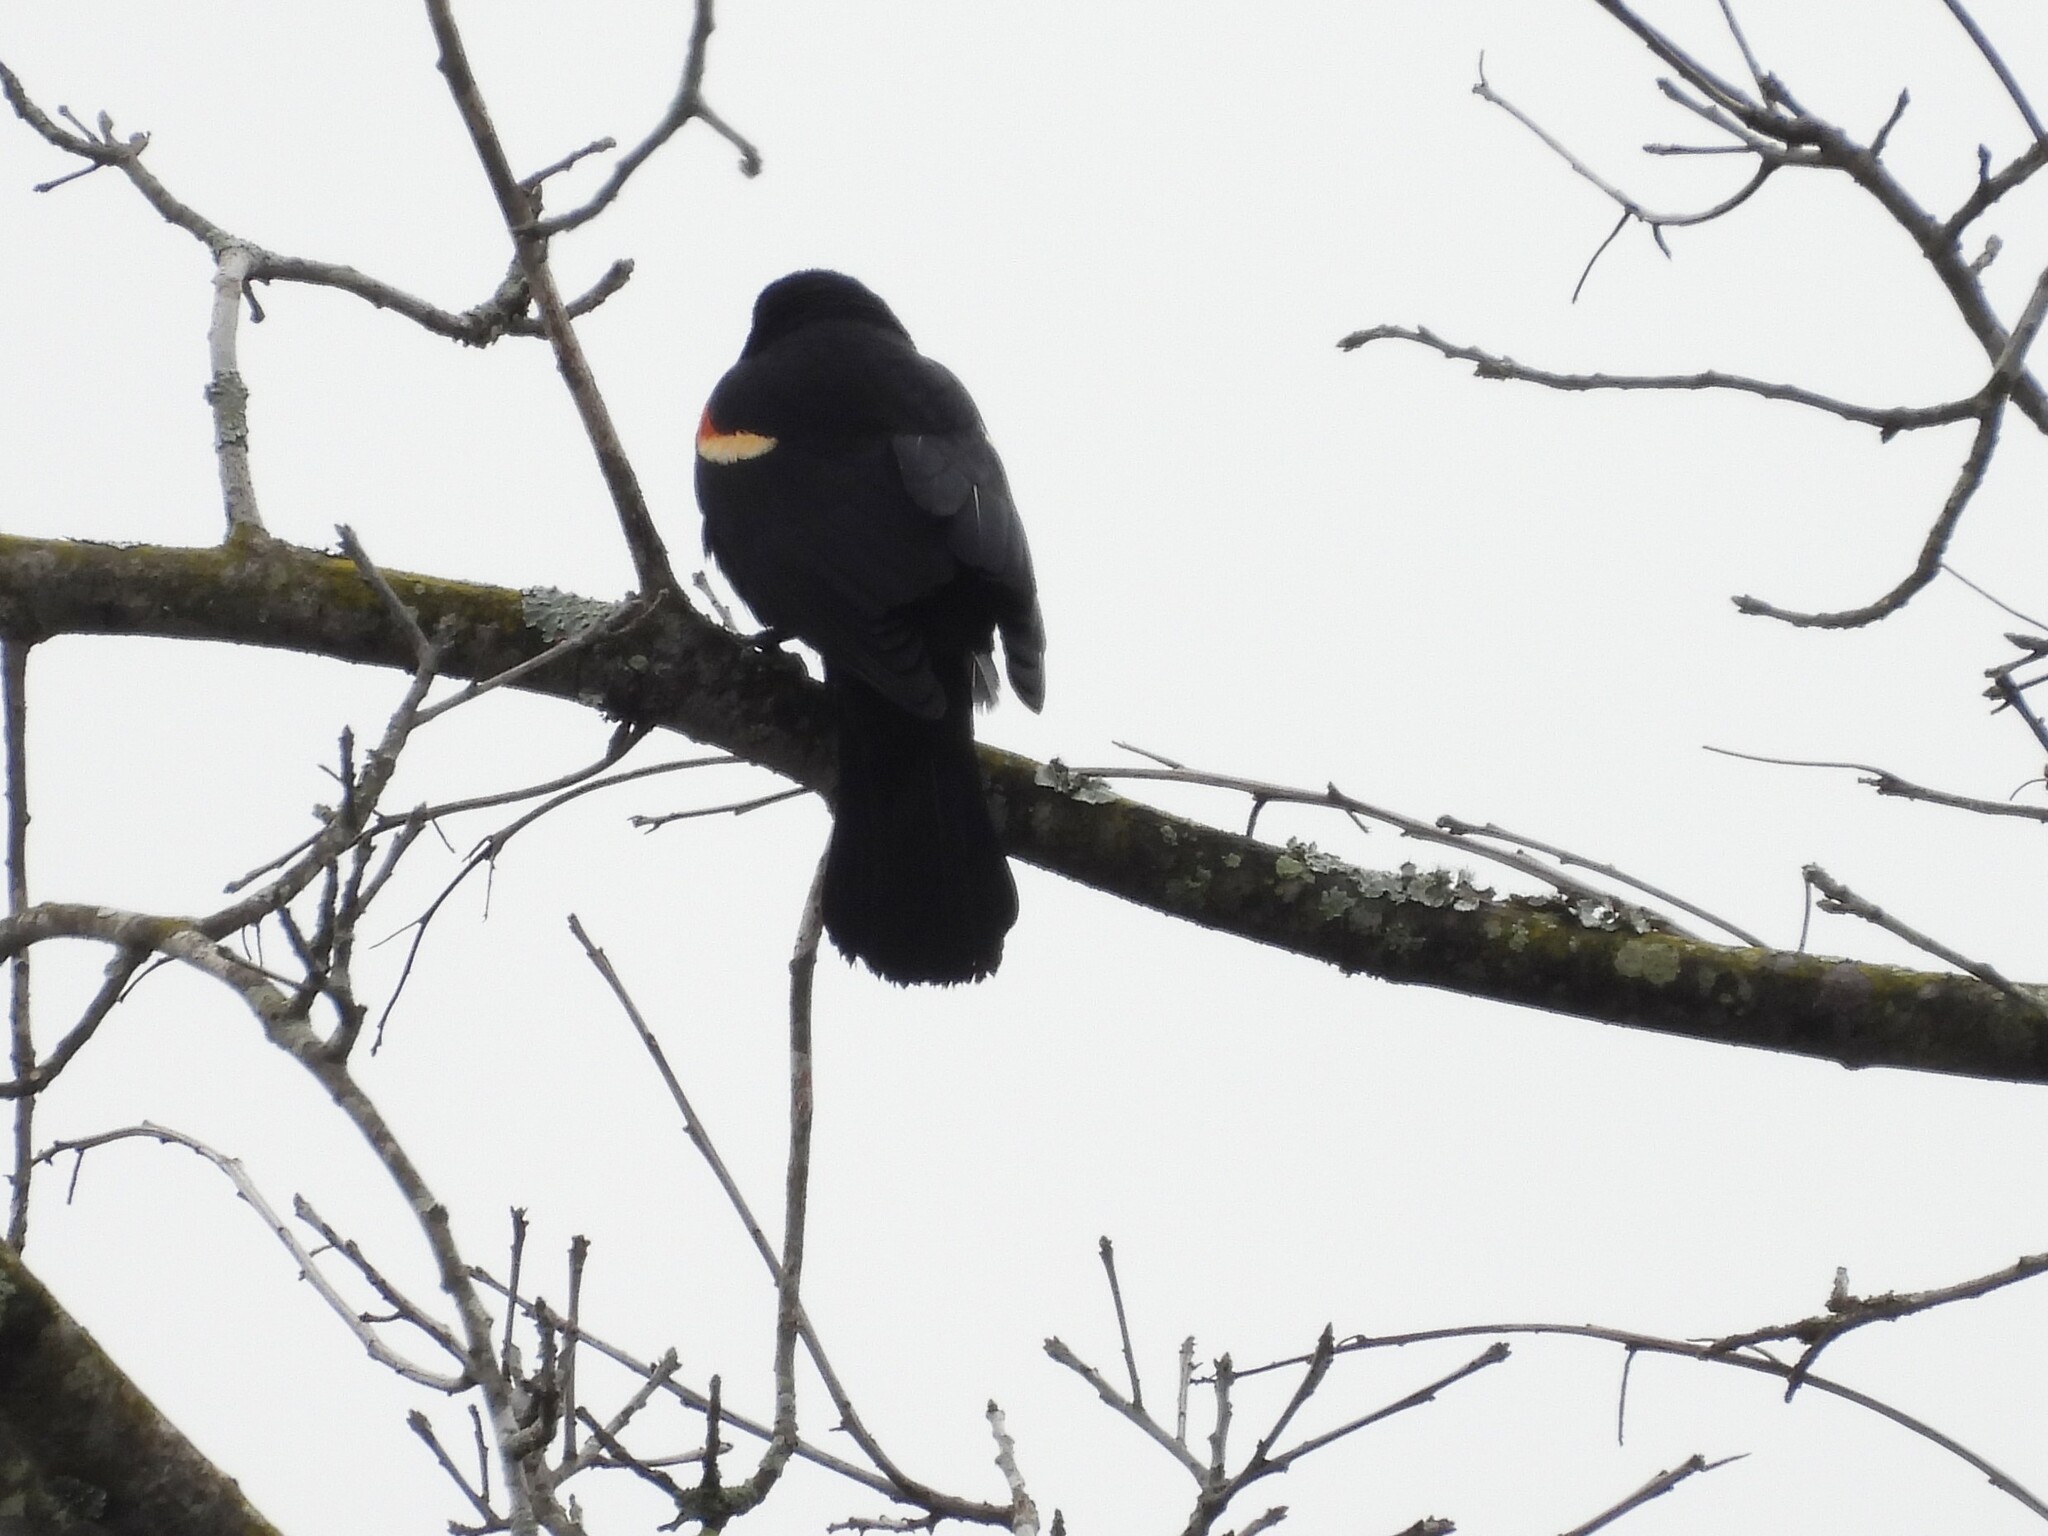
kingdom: Animalia
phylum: Chordata
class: Aves
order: Passeriformes
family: Icteridae
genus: Agelaius
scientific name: Agelaius phoeniceus
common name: Red-winged blackbird
